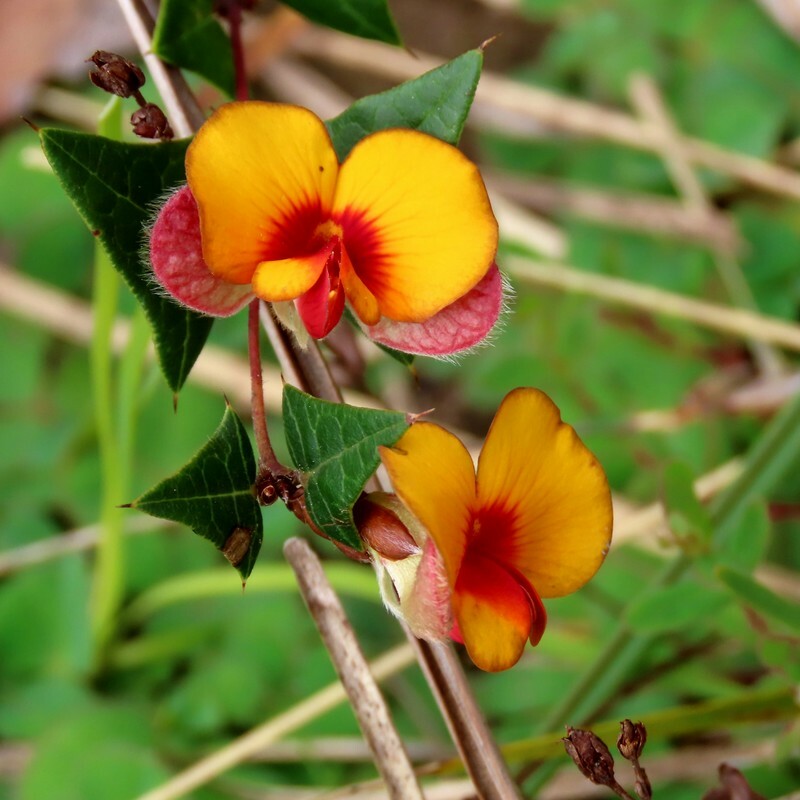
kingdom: Plantae
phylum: Tracheophyta
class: Magnoliopsida
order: Fabales
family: Fabaceae
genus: Platylobium
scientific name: Platylobium obtusangulum
